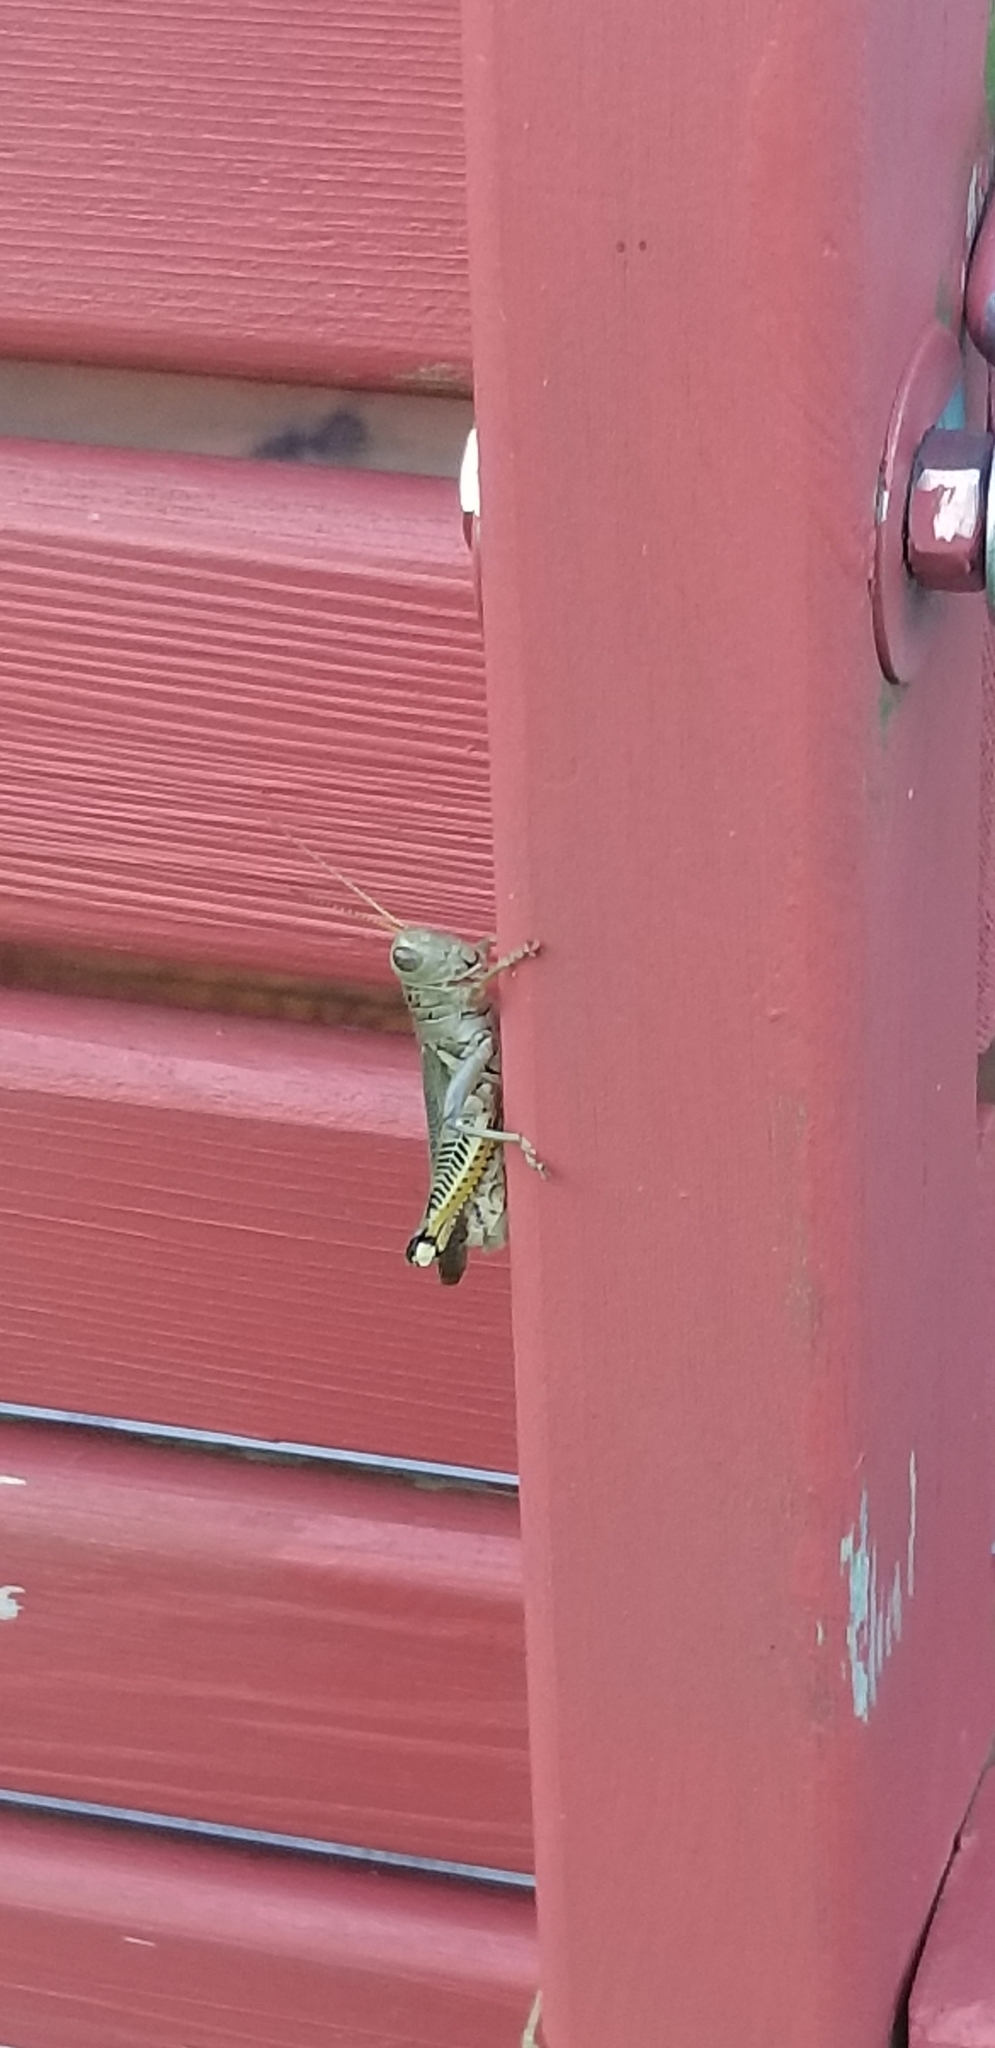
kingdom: Animalia
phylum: Arthropoda
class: Insecta
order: Orthoptera
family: Acrididae
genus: Melanoplus
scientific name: Melanoplus differentialis
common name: Differential grasshopper
